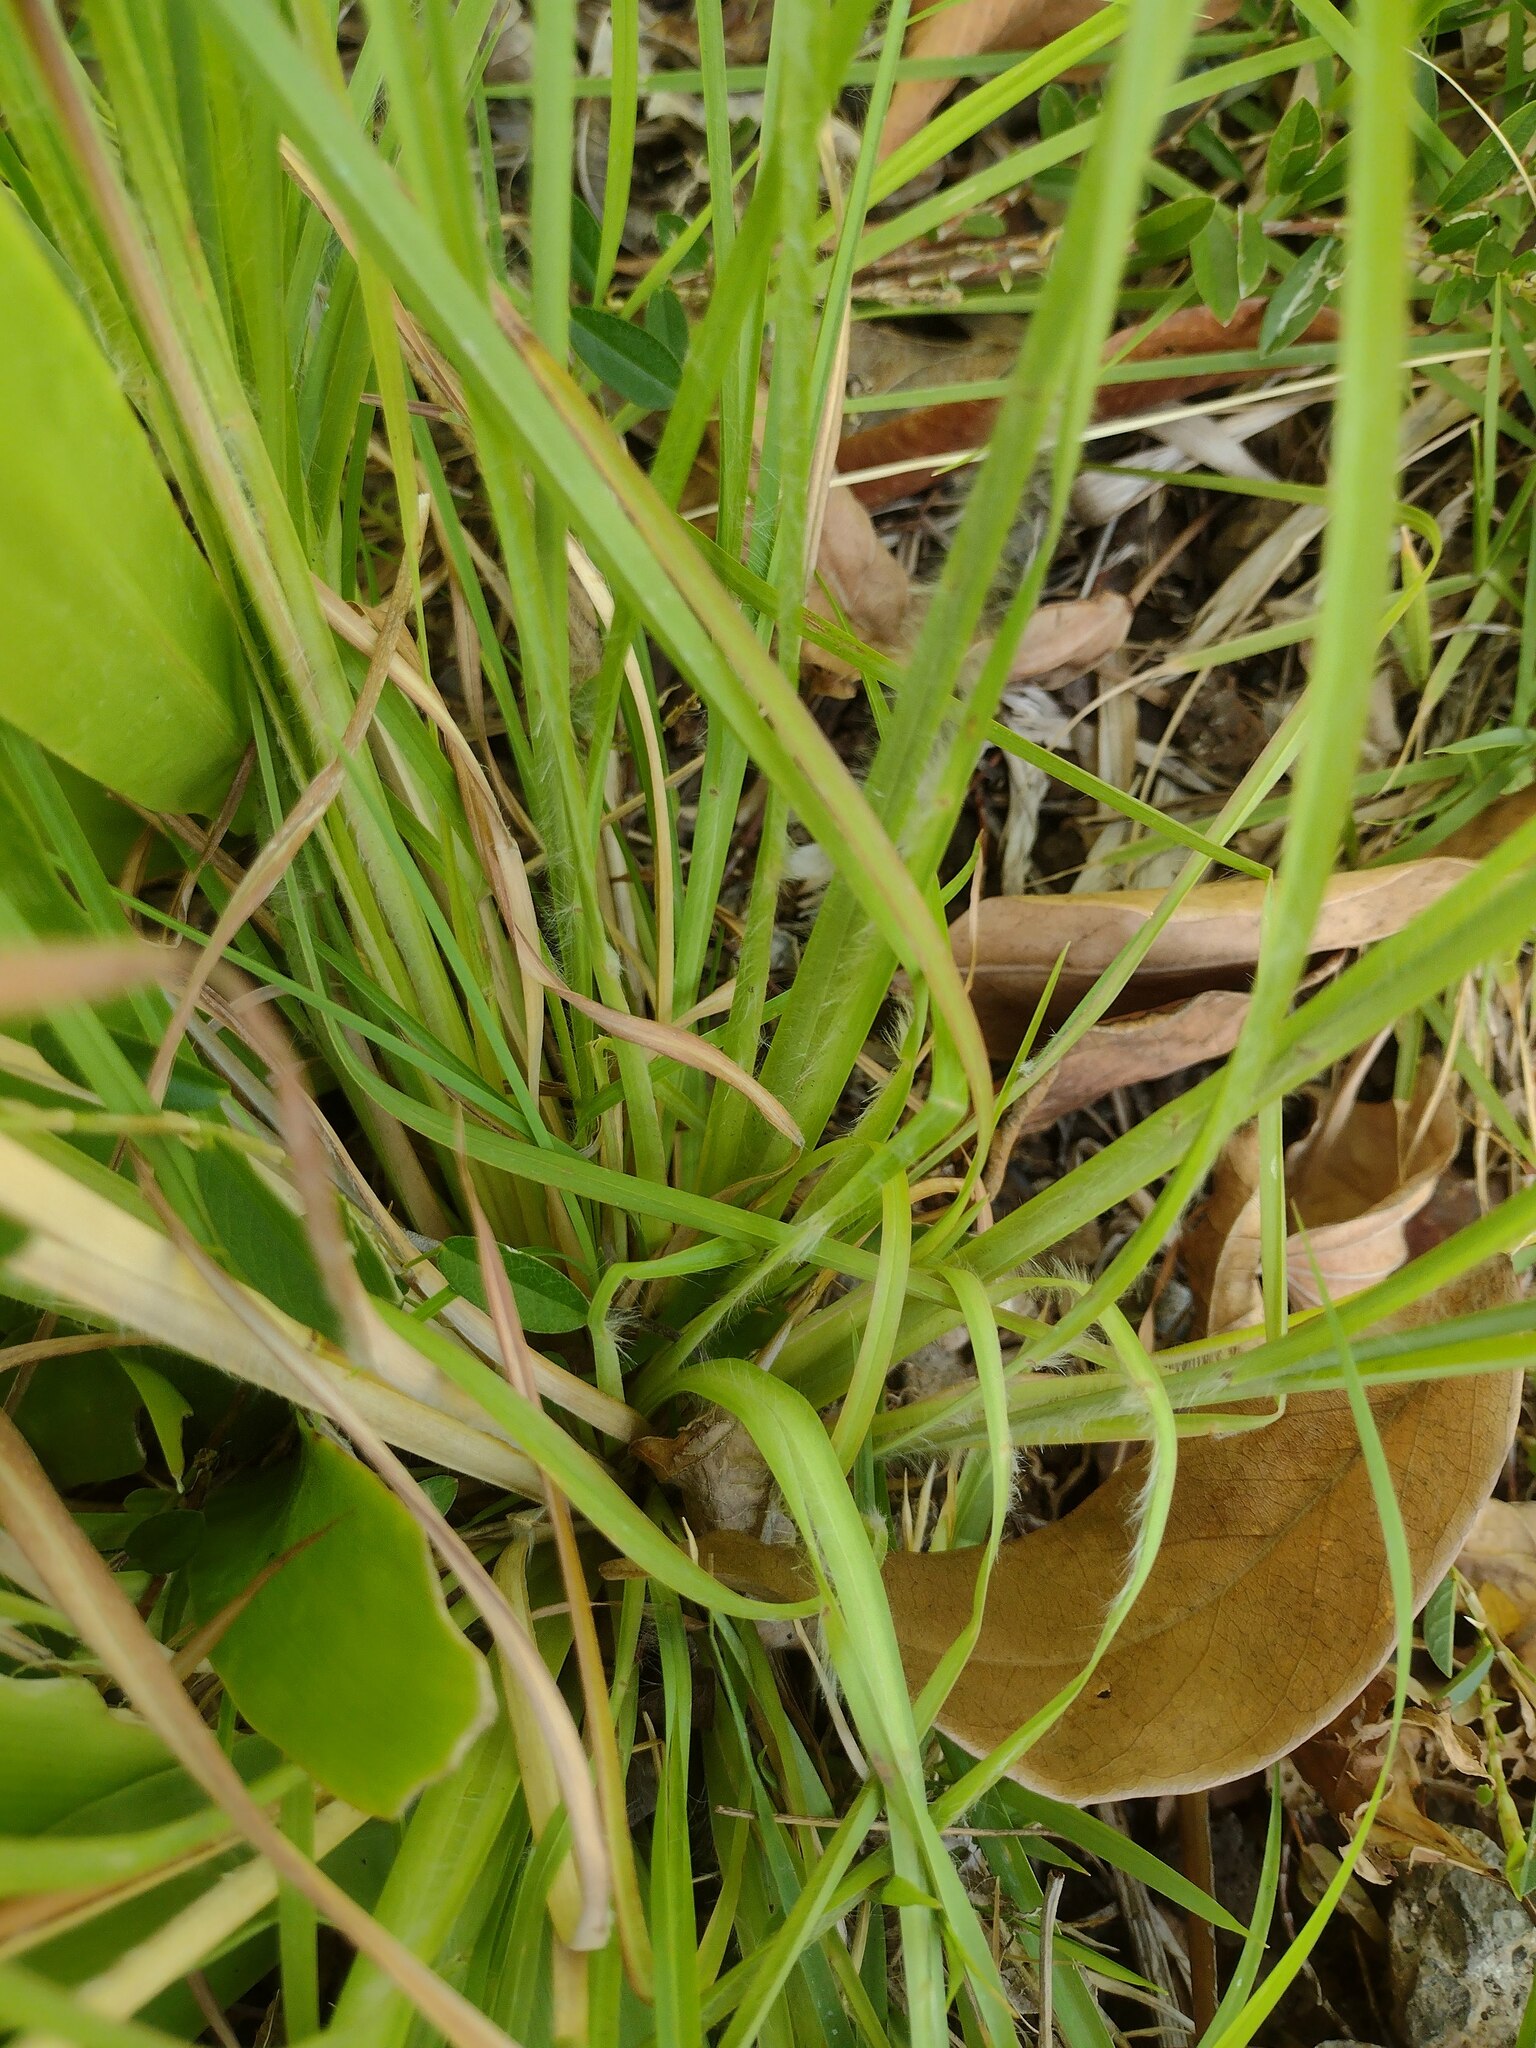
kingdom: Plantae
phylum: Tracheophyta
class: Liliopsida
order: Poales
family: Poaceae
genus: Andropogon
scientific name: Andropogon virginicus
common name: Broomsedge bluestem
